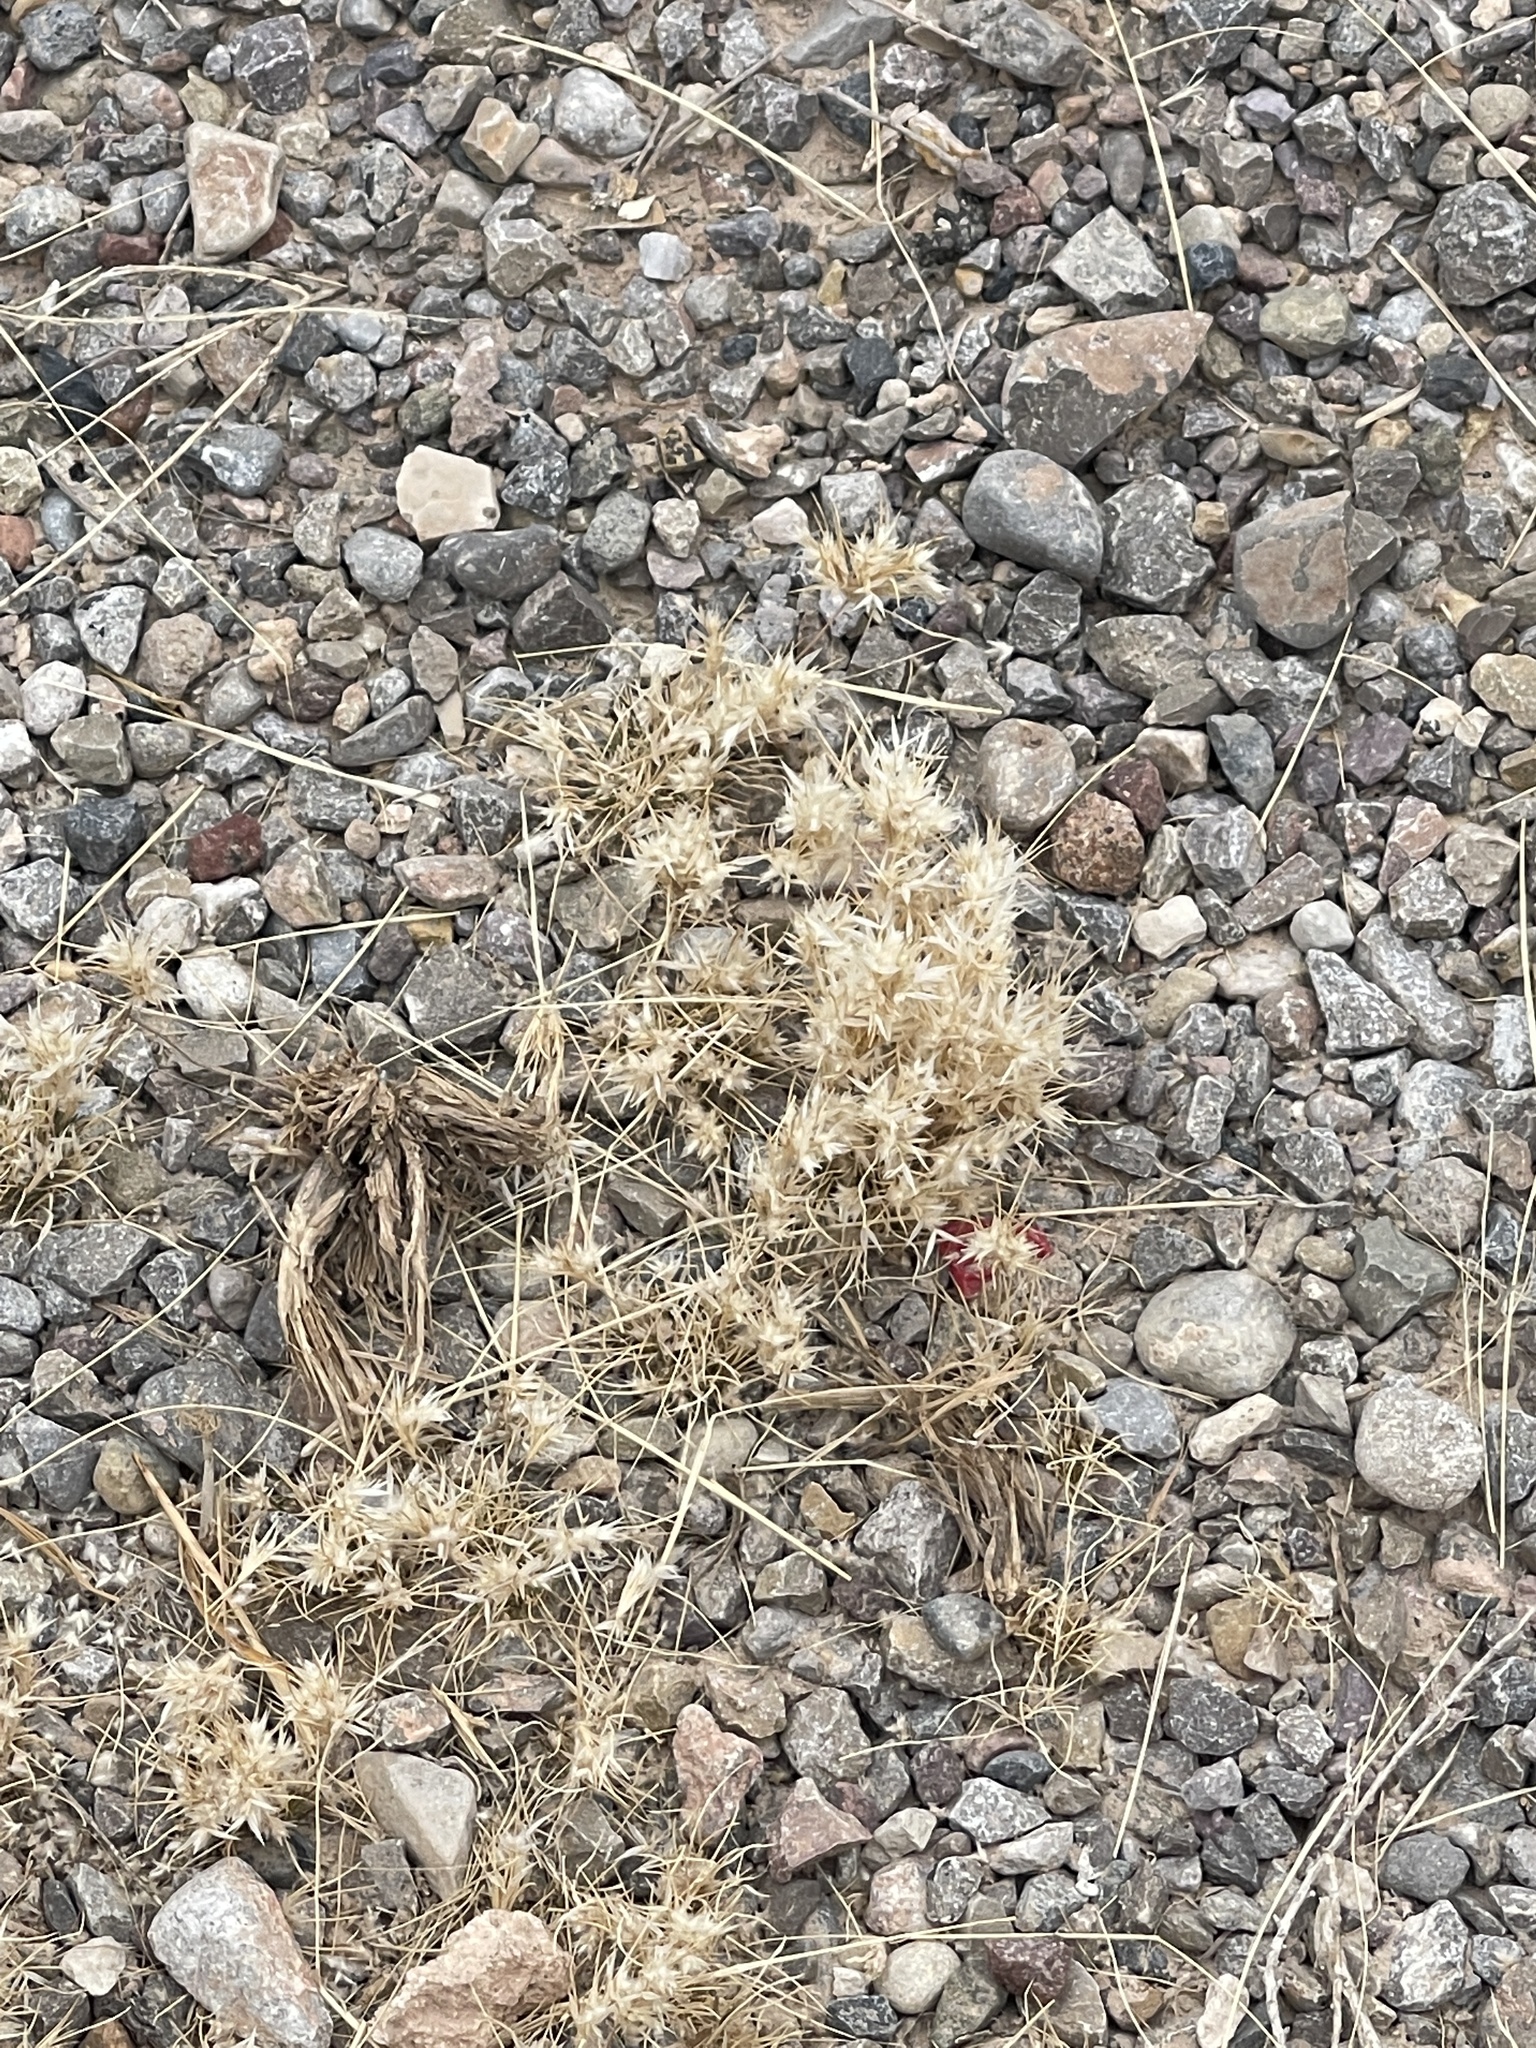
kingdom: Plantae
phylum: Tracheophyta
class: Liliopsida
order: Poales
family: Poaceae
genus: Dasyochloa
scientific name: Dasyochloa pulchella
